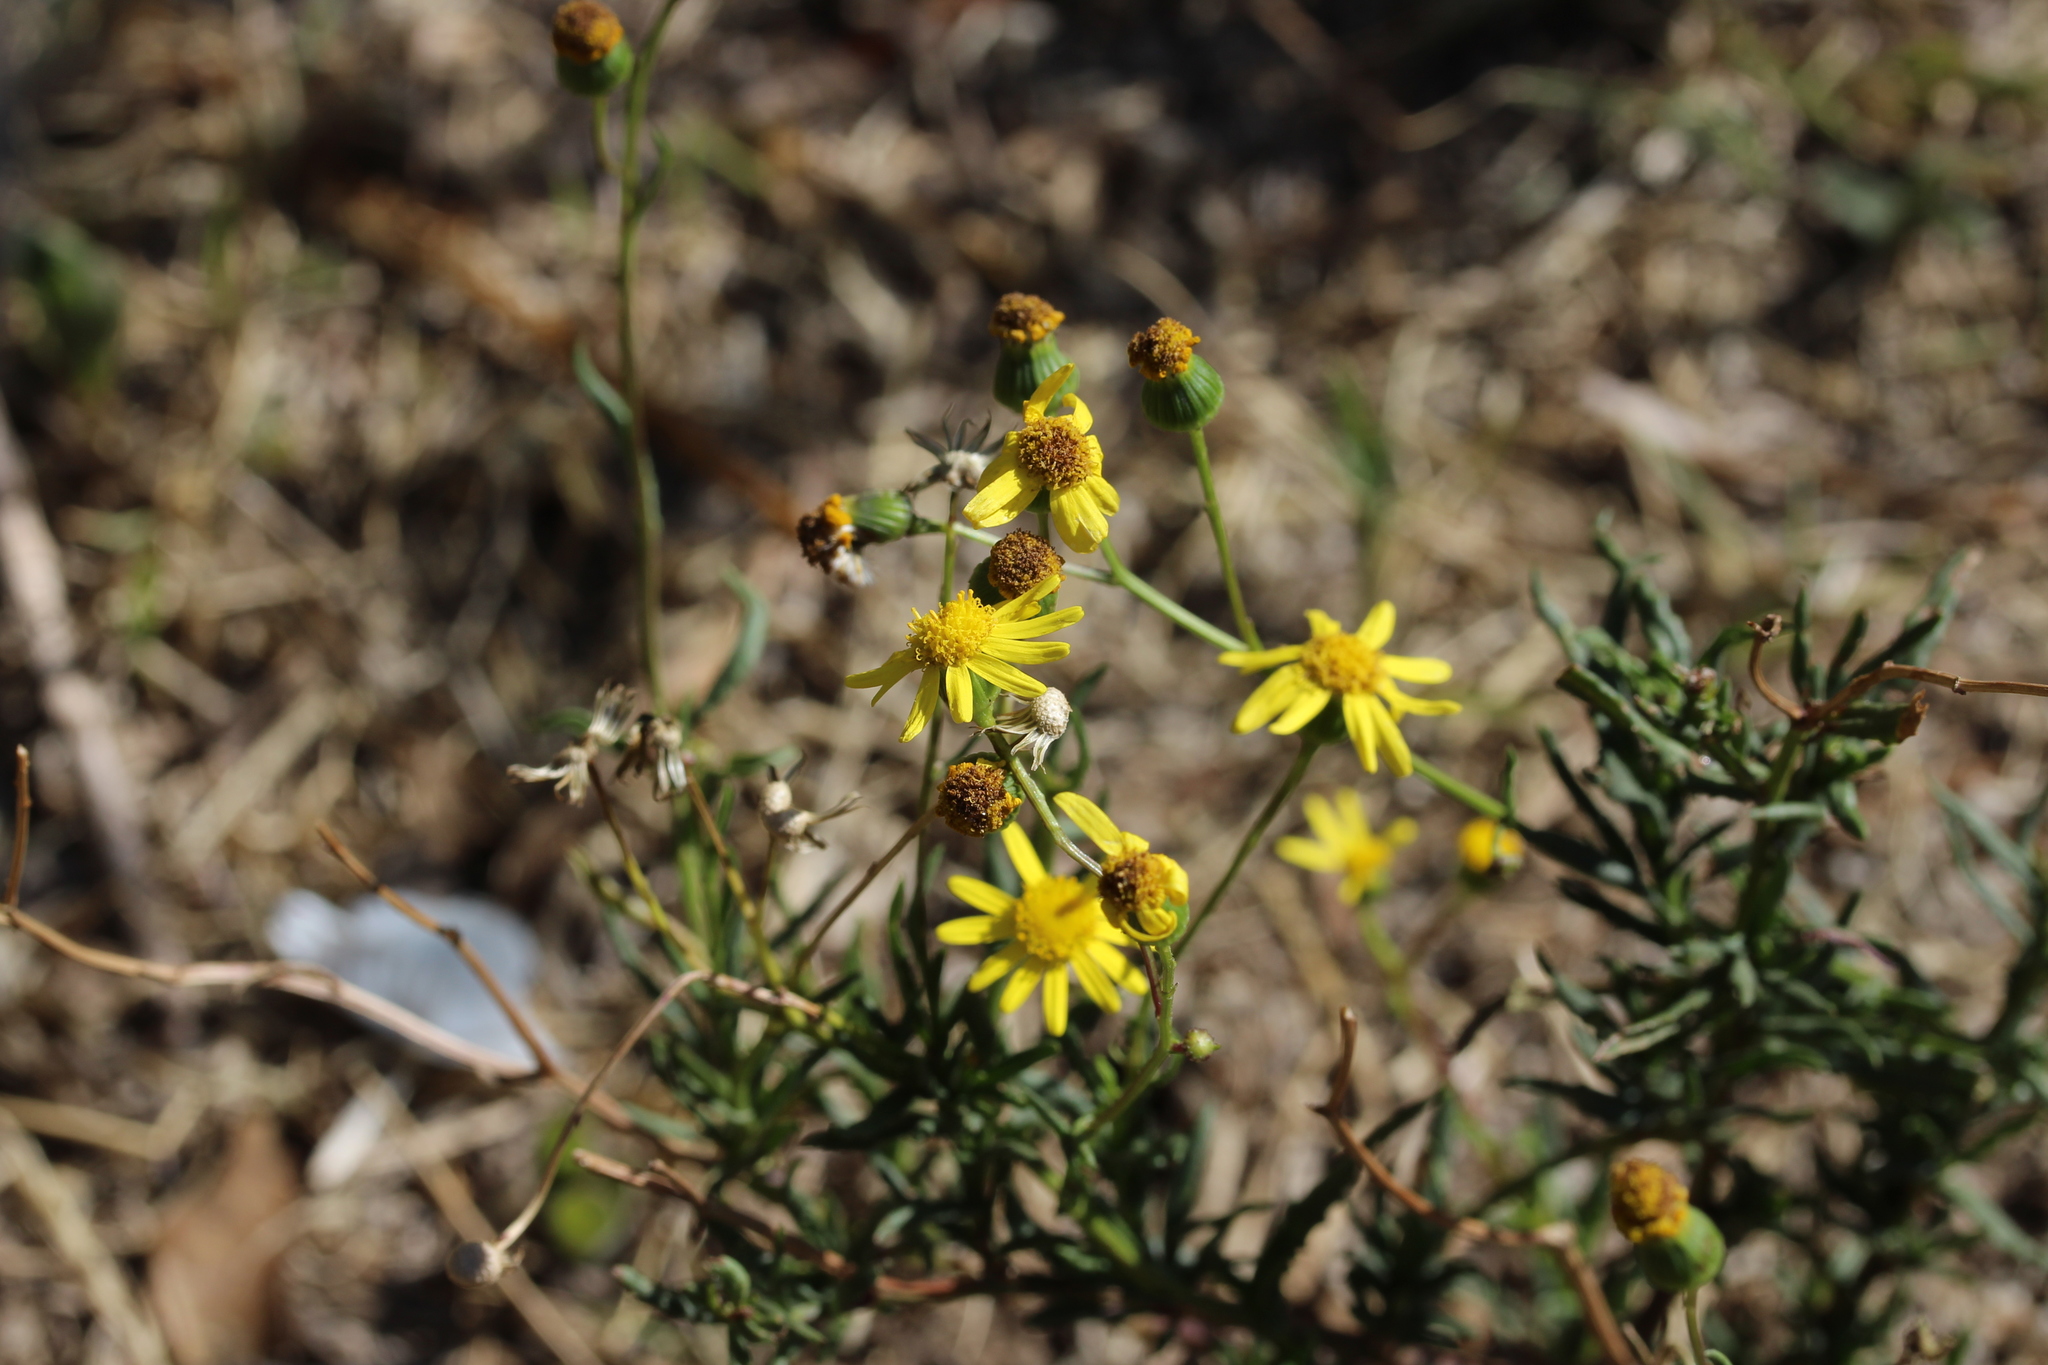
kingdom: Plantae
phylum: Tracheophyta
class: Magnoliopsida
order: Asterales
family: Asteraceae
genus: Senecio
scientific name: Senecio inaequidens
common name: Narrow-leaved ragwort
